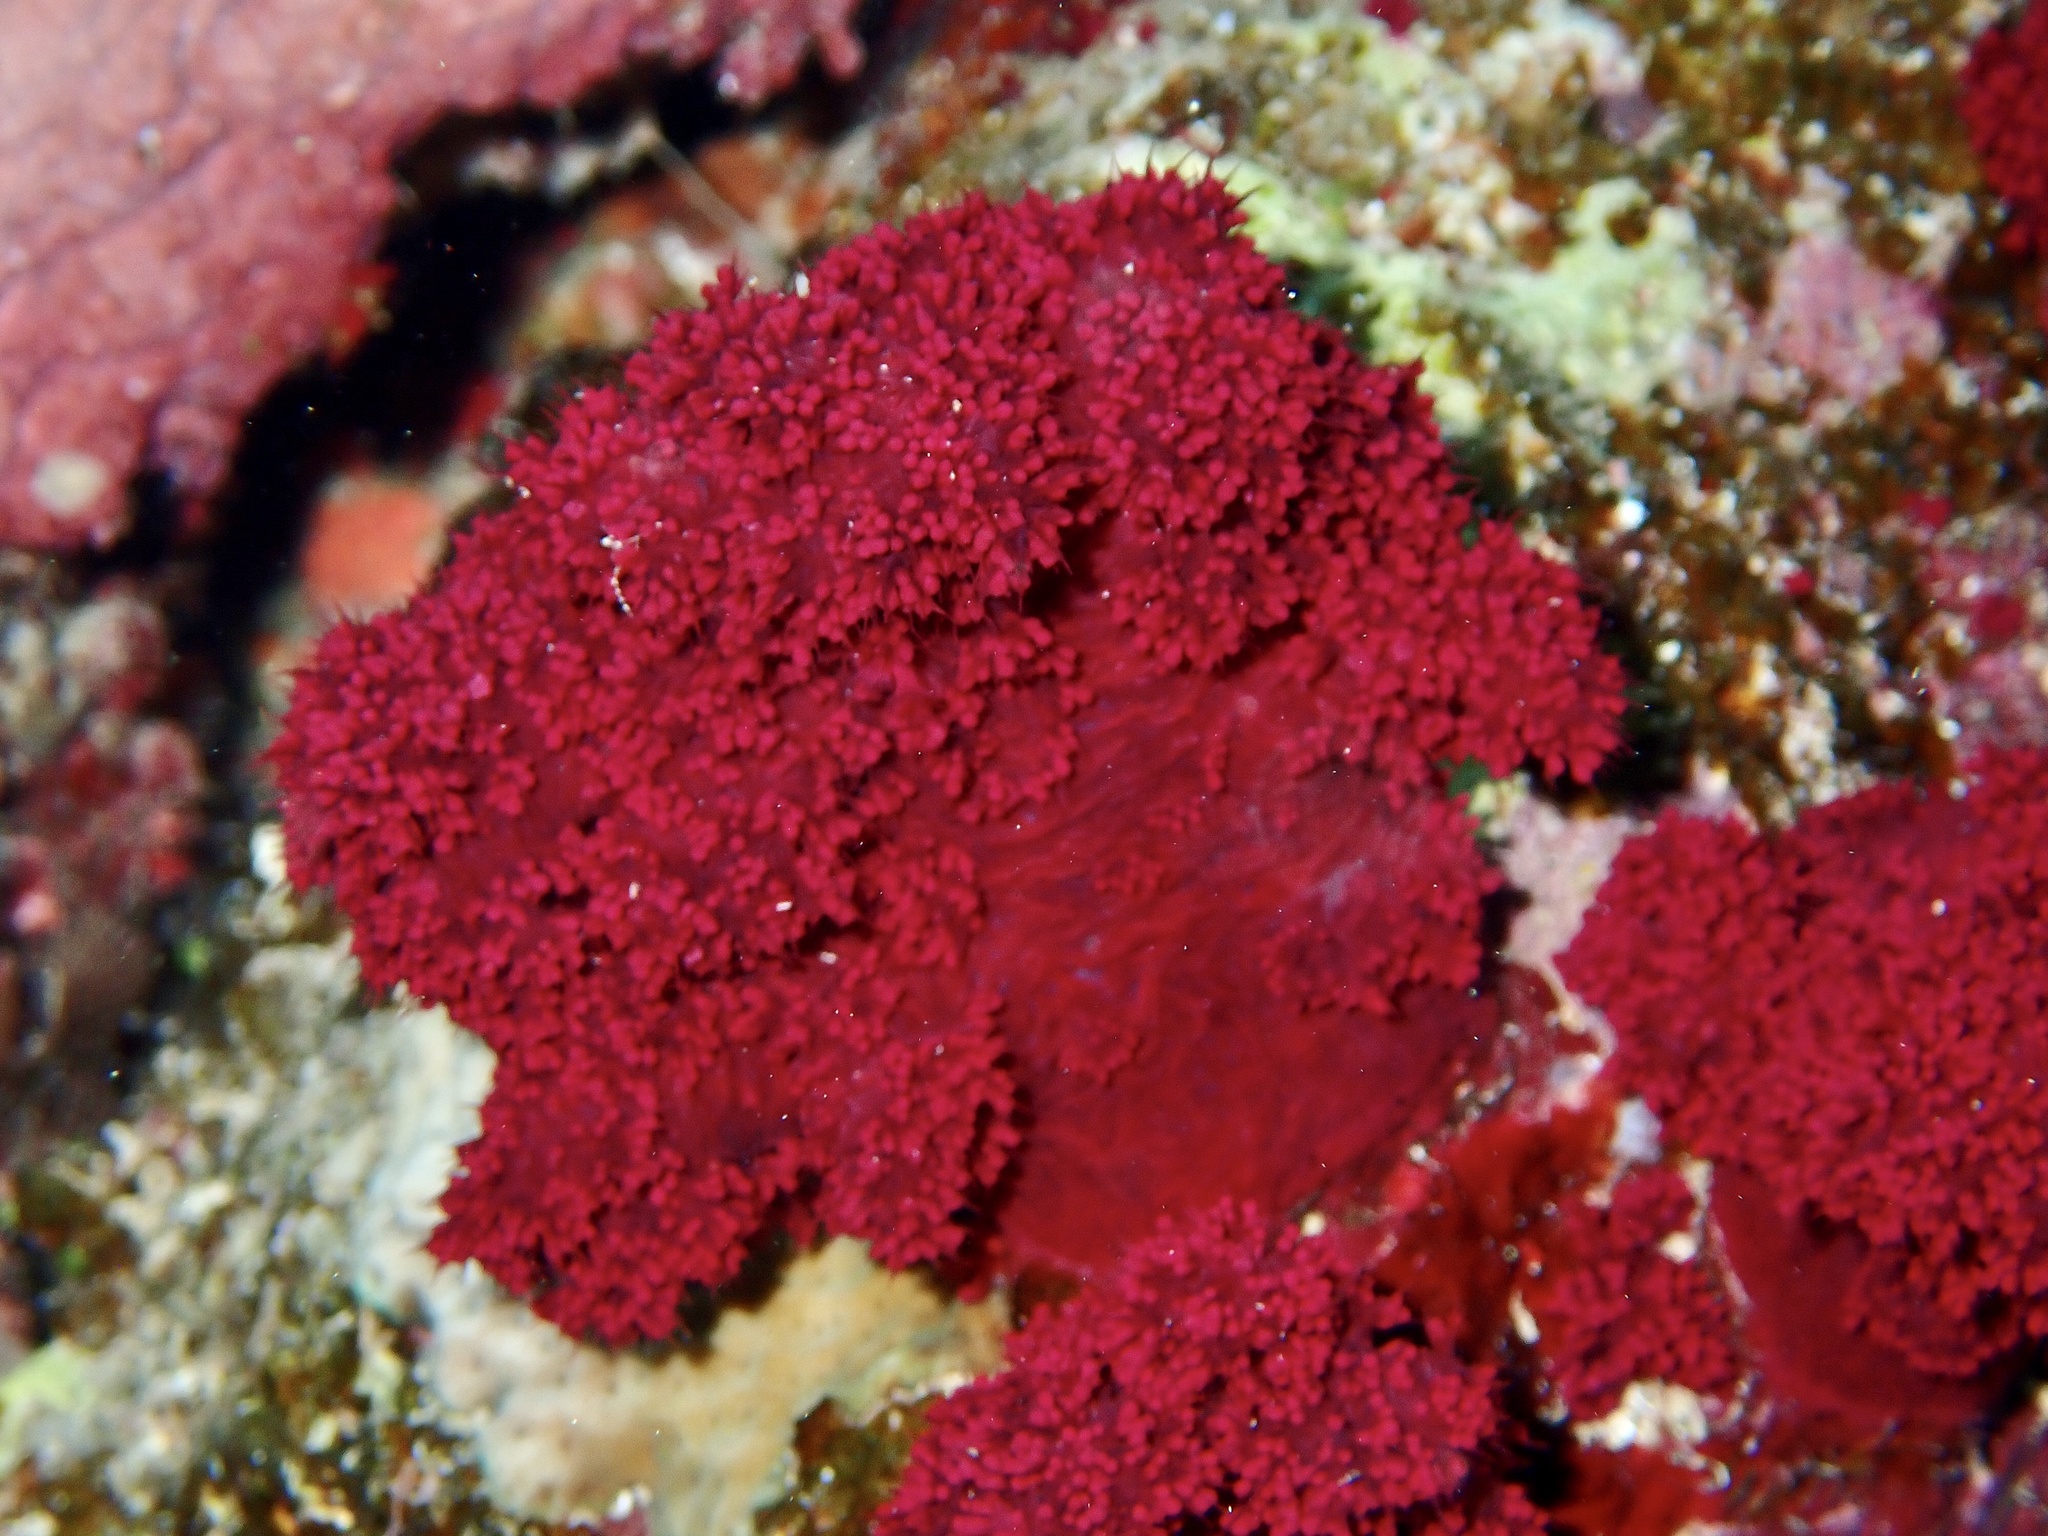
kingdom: Animalia
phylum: Cnidaria
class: Anthozoa
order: Malacalcyonacea
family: Nephtheidae
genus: Dendronephthya
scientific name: Dendronephthya hemprichi
